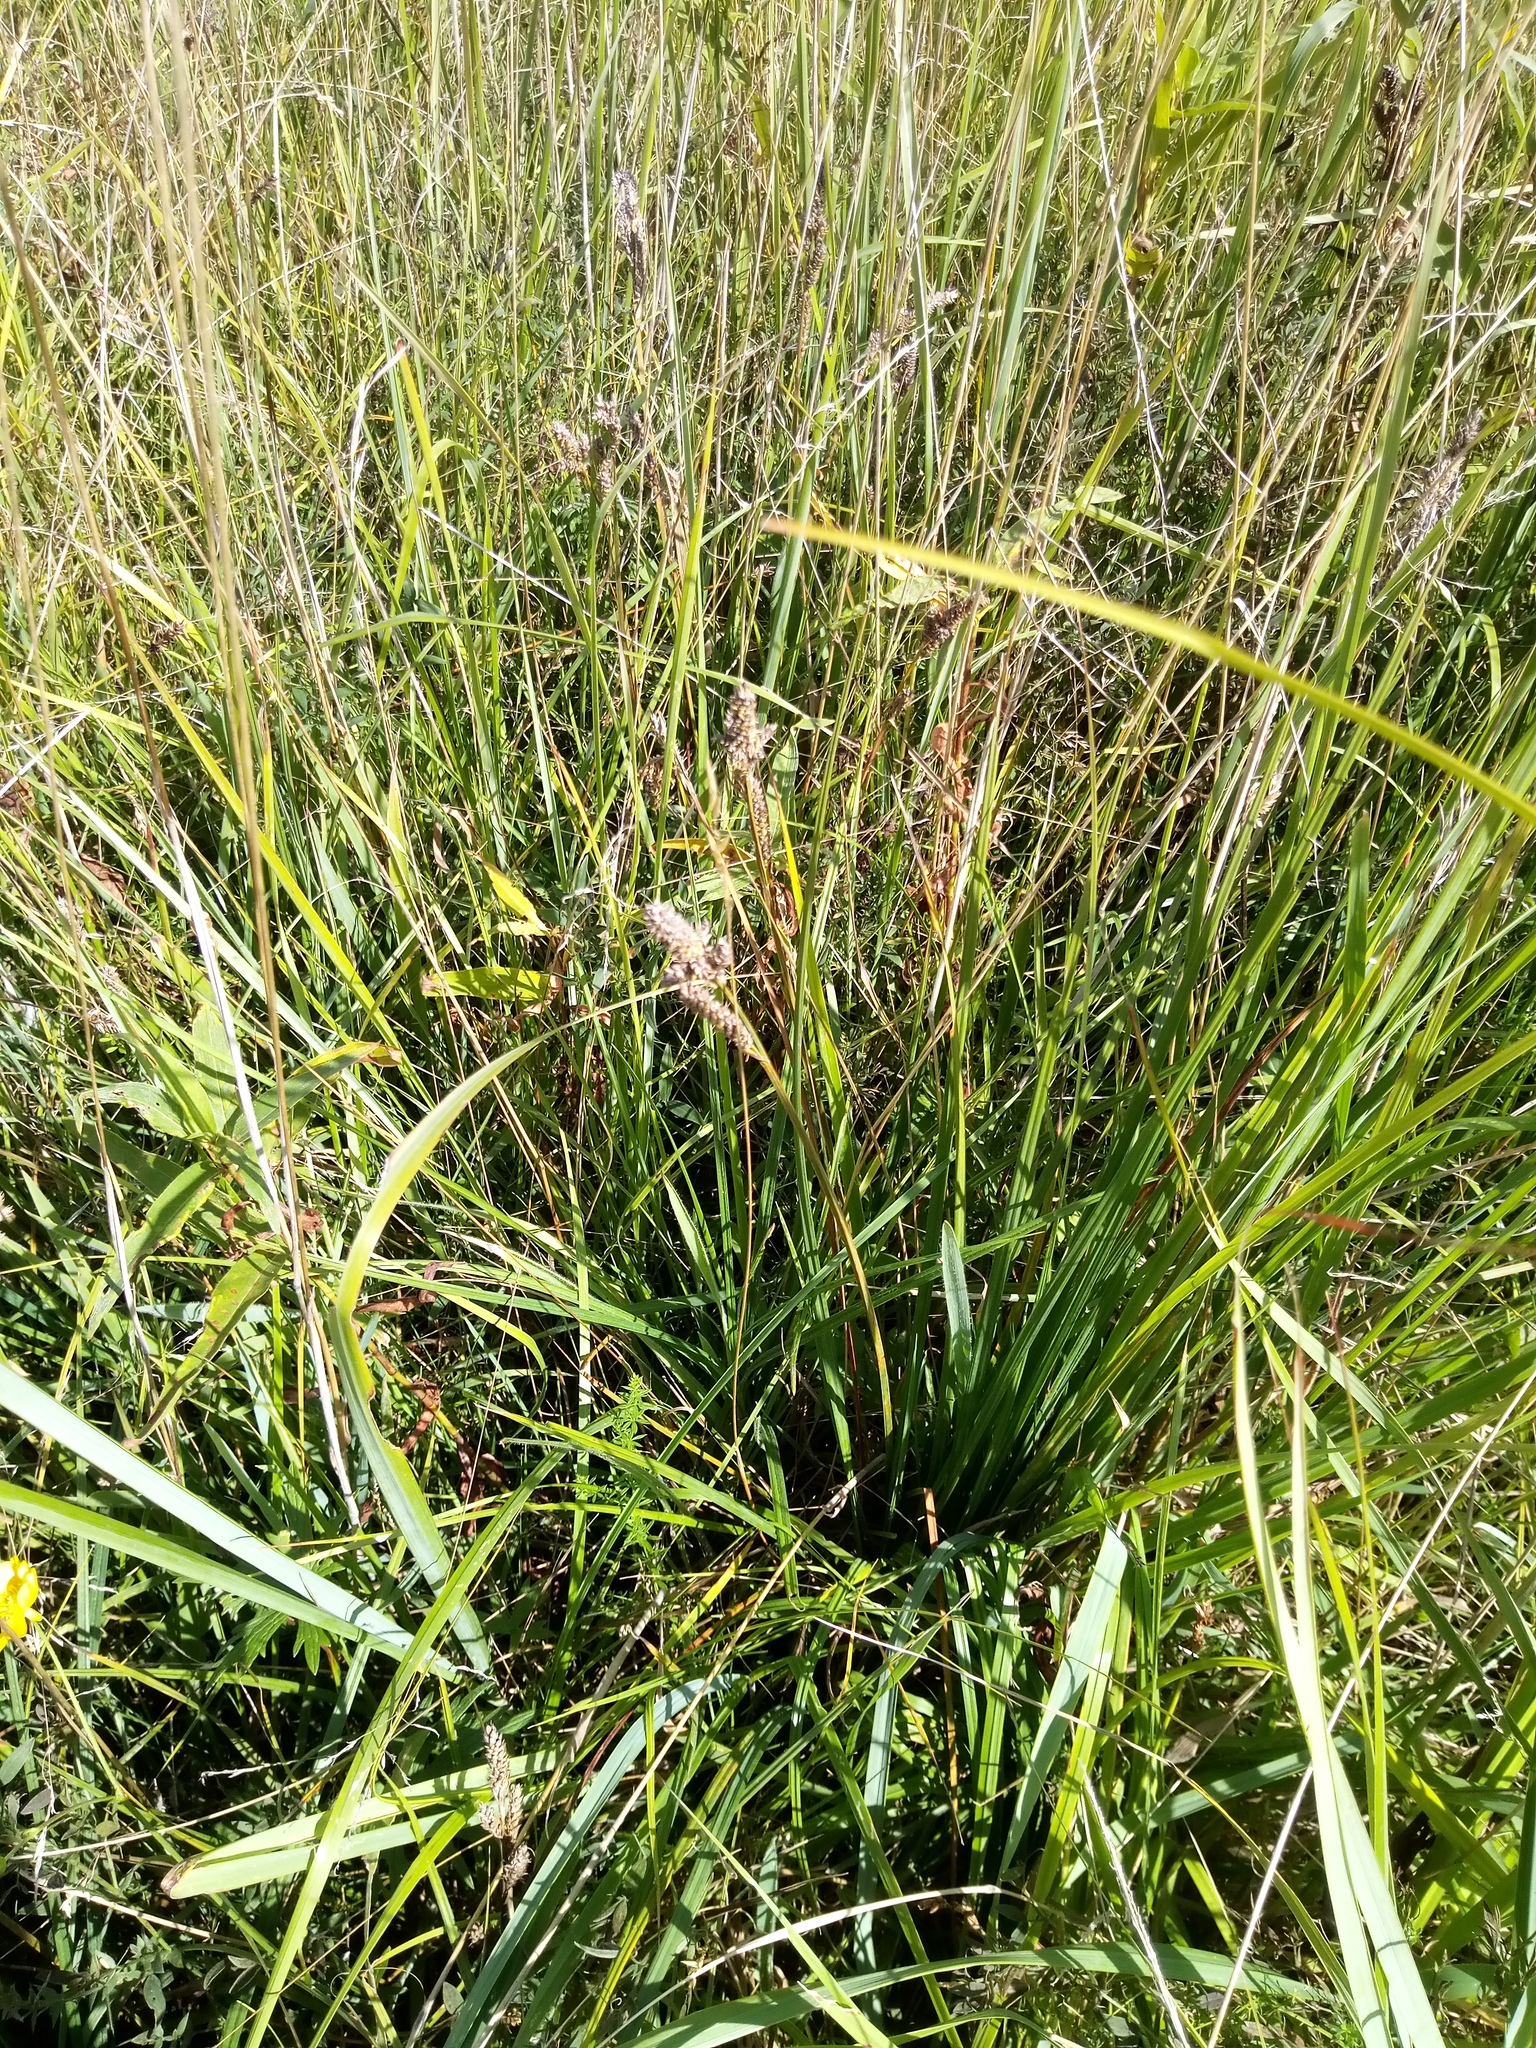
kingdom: Plantae
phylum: Tracheophyta
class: Liliopsida
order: Poales
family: Cyperaceae
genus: Carex
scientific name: Carex hartmaniorum
